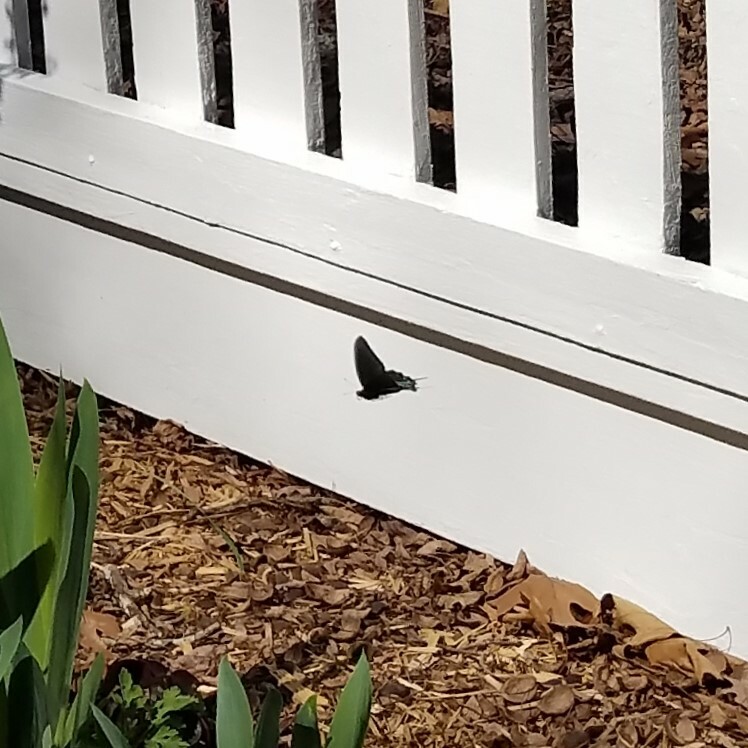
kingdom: Animalia
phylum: Arthropoda
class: Insecta
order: Lepidoptera
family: Papilionidae
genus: Battus
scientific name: Battus philenor
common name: Pipevine swallowtail
